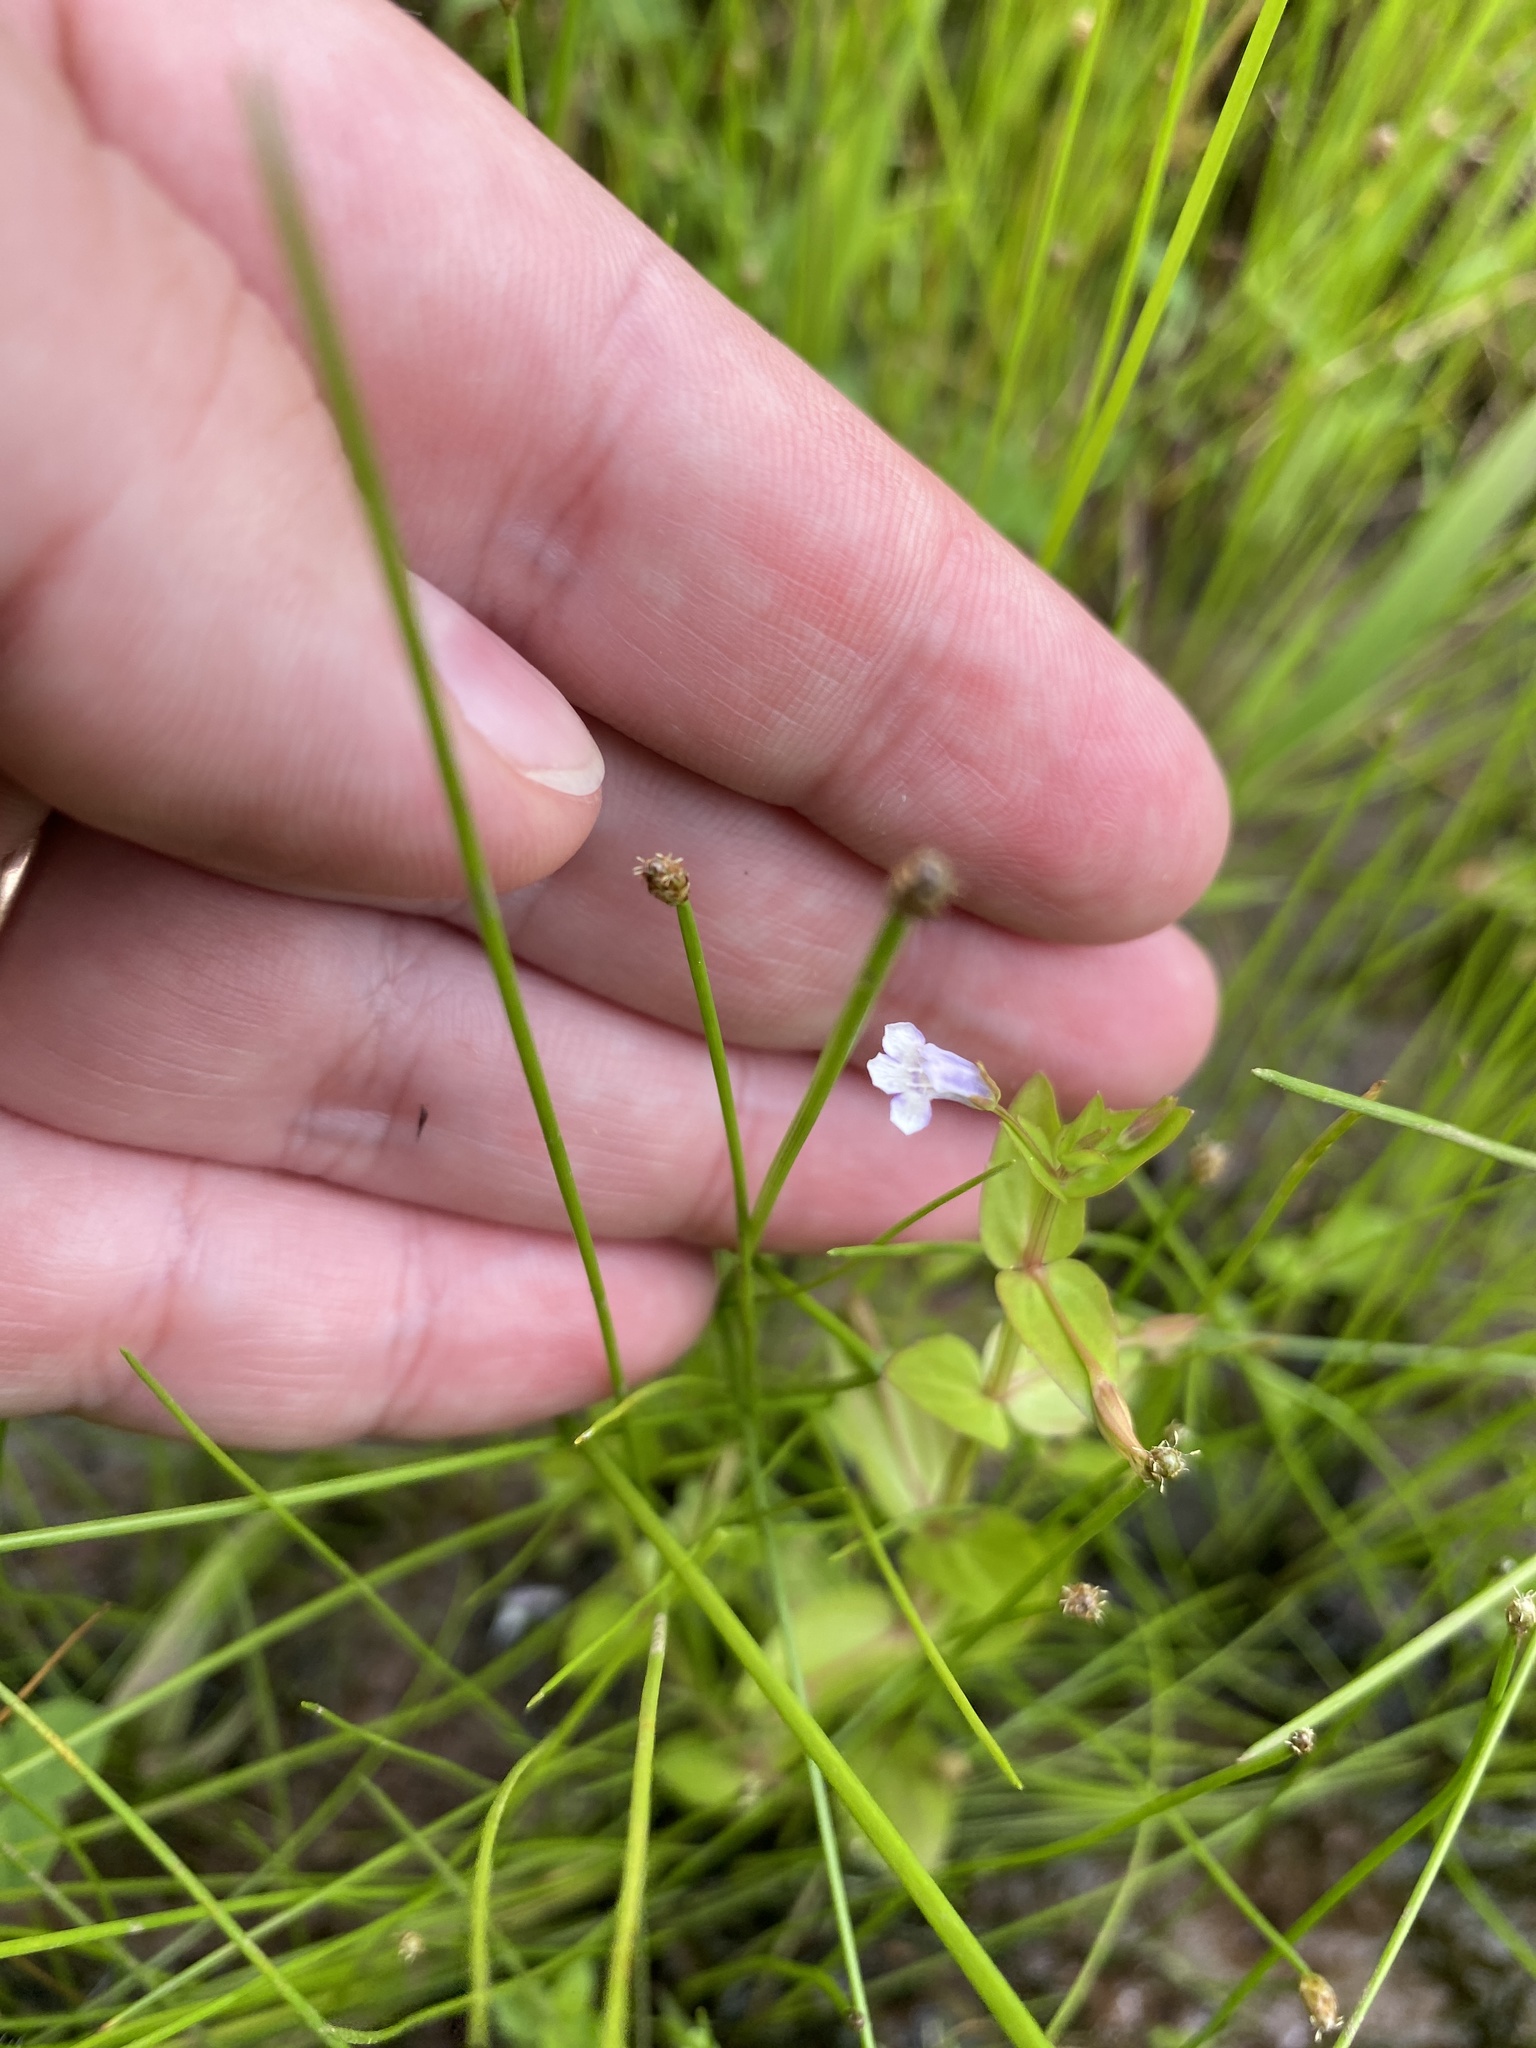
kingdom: Plantae
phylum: Tracheophyta
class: Magnoliopsida
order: Lamiales
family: Linderniaceae
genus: Lindernia
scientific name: Lindernia dubia
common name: Annual false pimpernel
